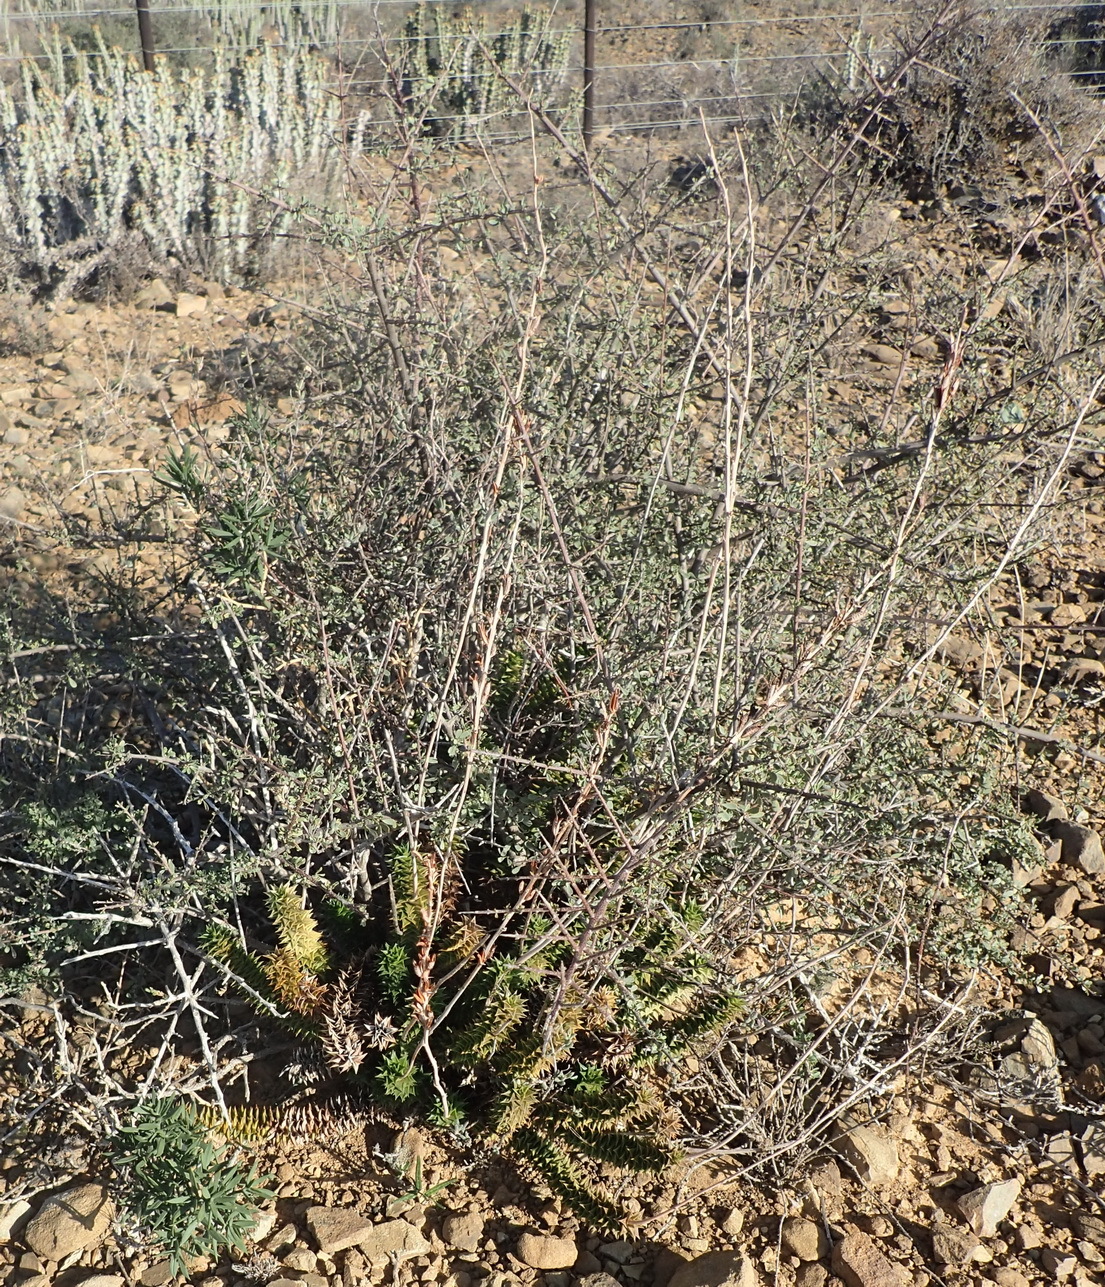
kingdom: Plantae
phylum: Tracheophyta
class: Liliopsida
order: Asparagales
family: Asphodelaceae
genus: Astroloba
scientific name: Astroloba foliolosa
